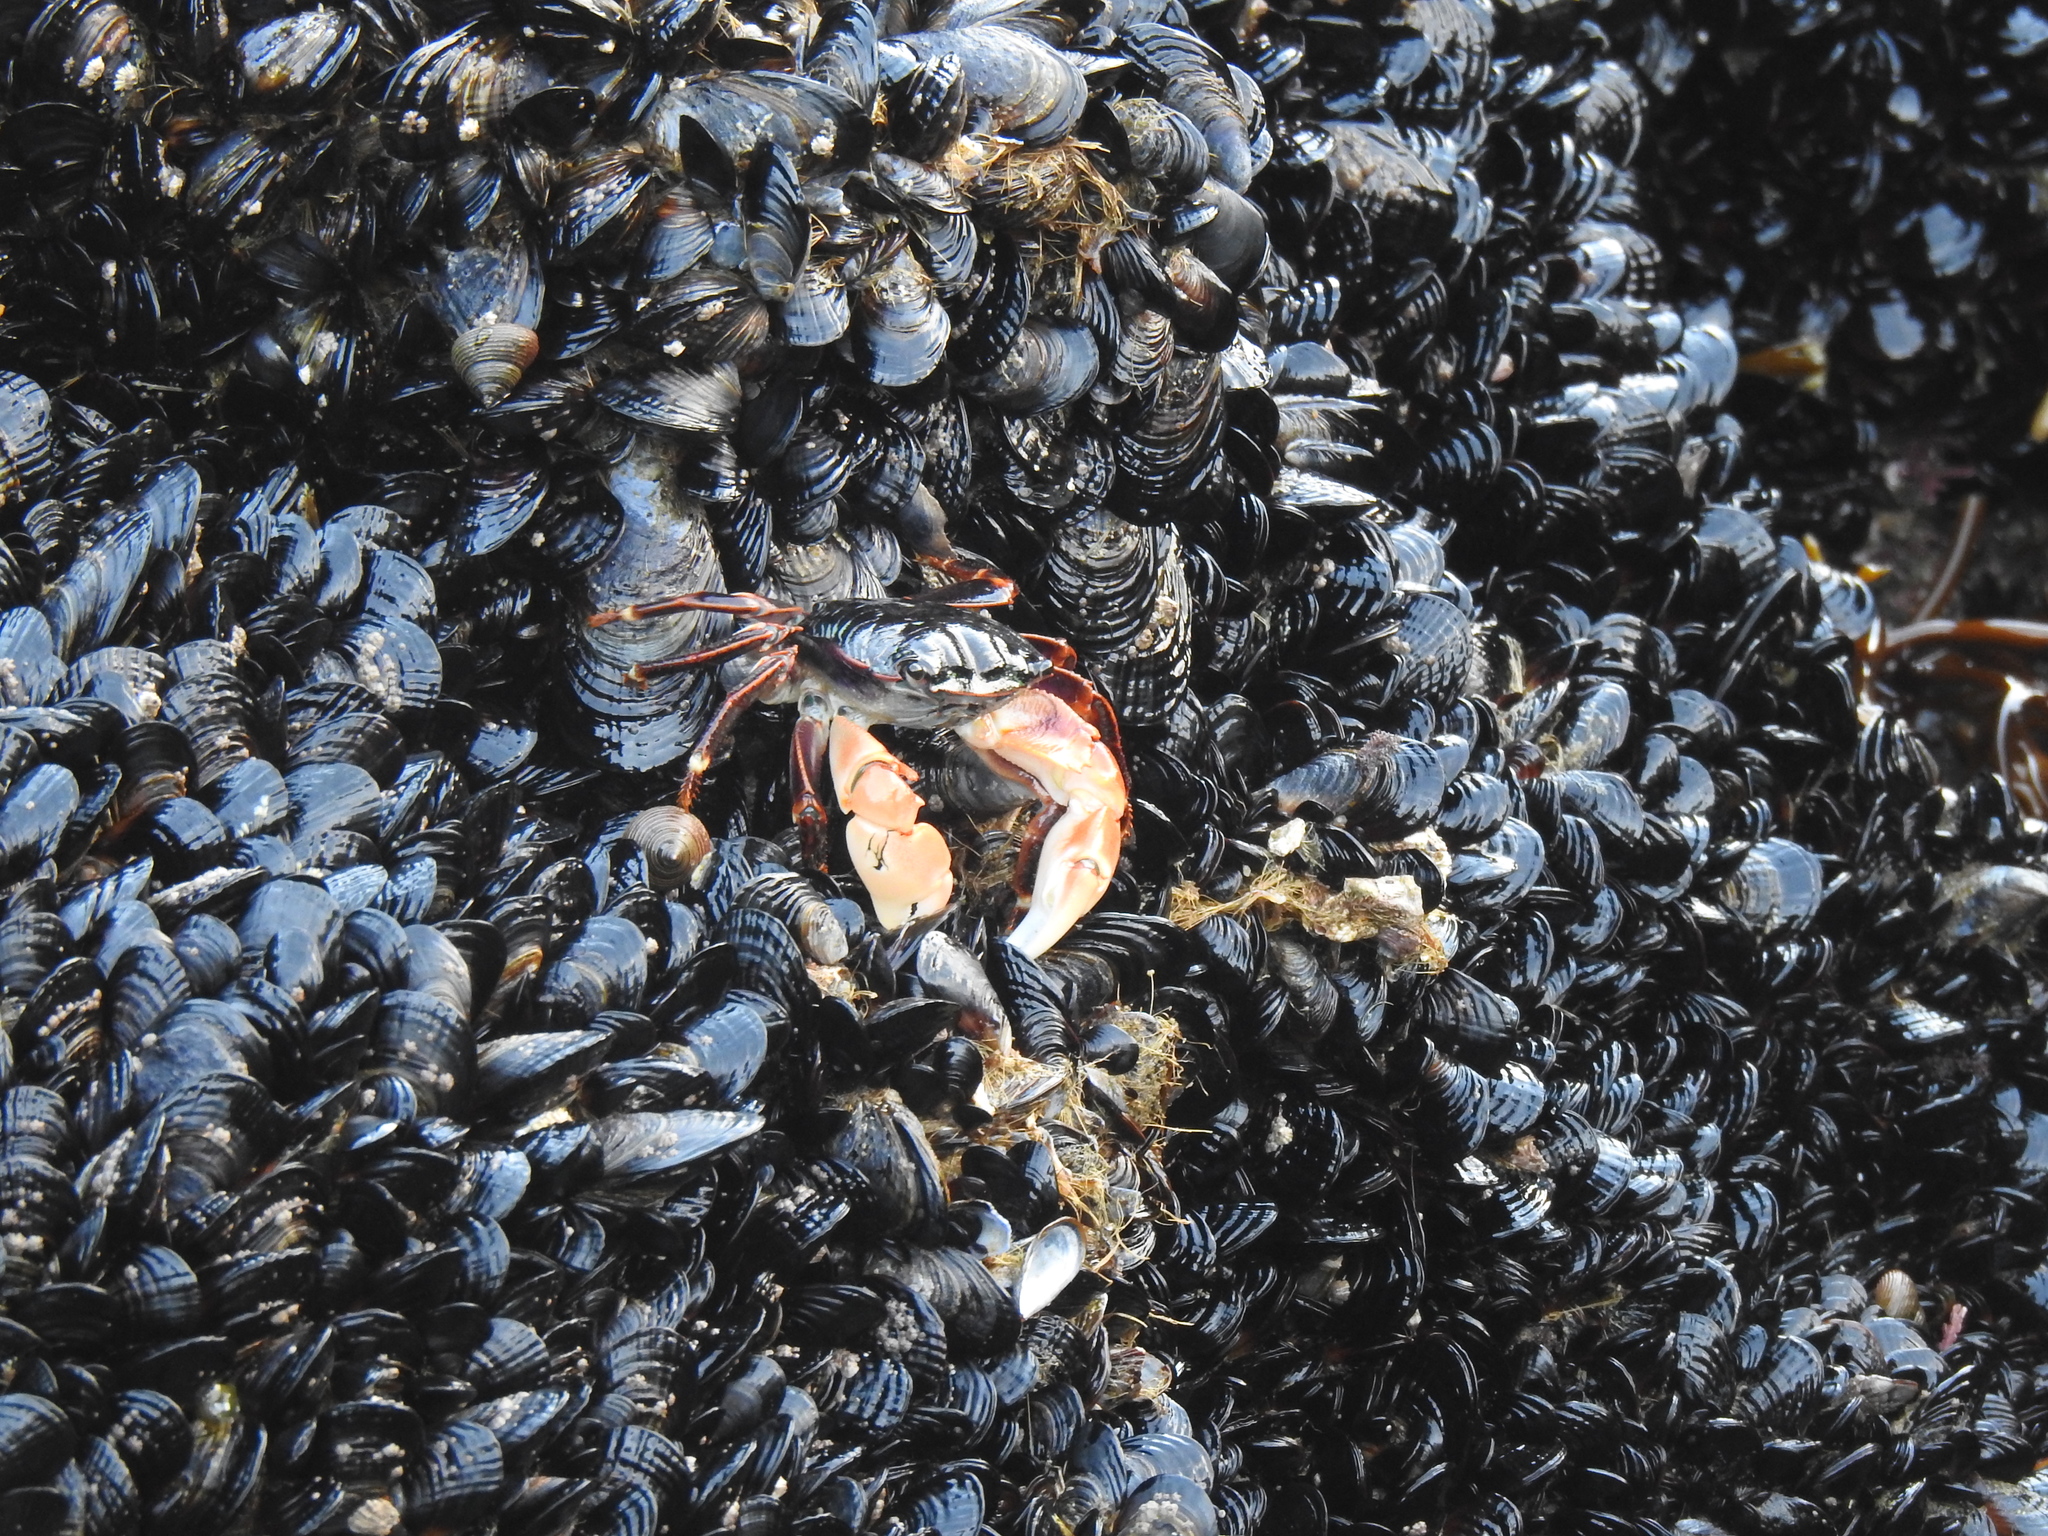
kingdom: Animalia
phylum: Arthropoda
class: Malacostraca
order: Decapoda
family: Grapsidae
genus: Pachygrapsus
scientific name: Pachygrapsus crassipes
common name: Striped shore crab
